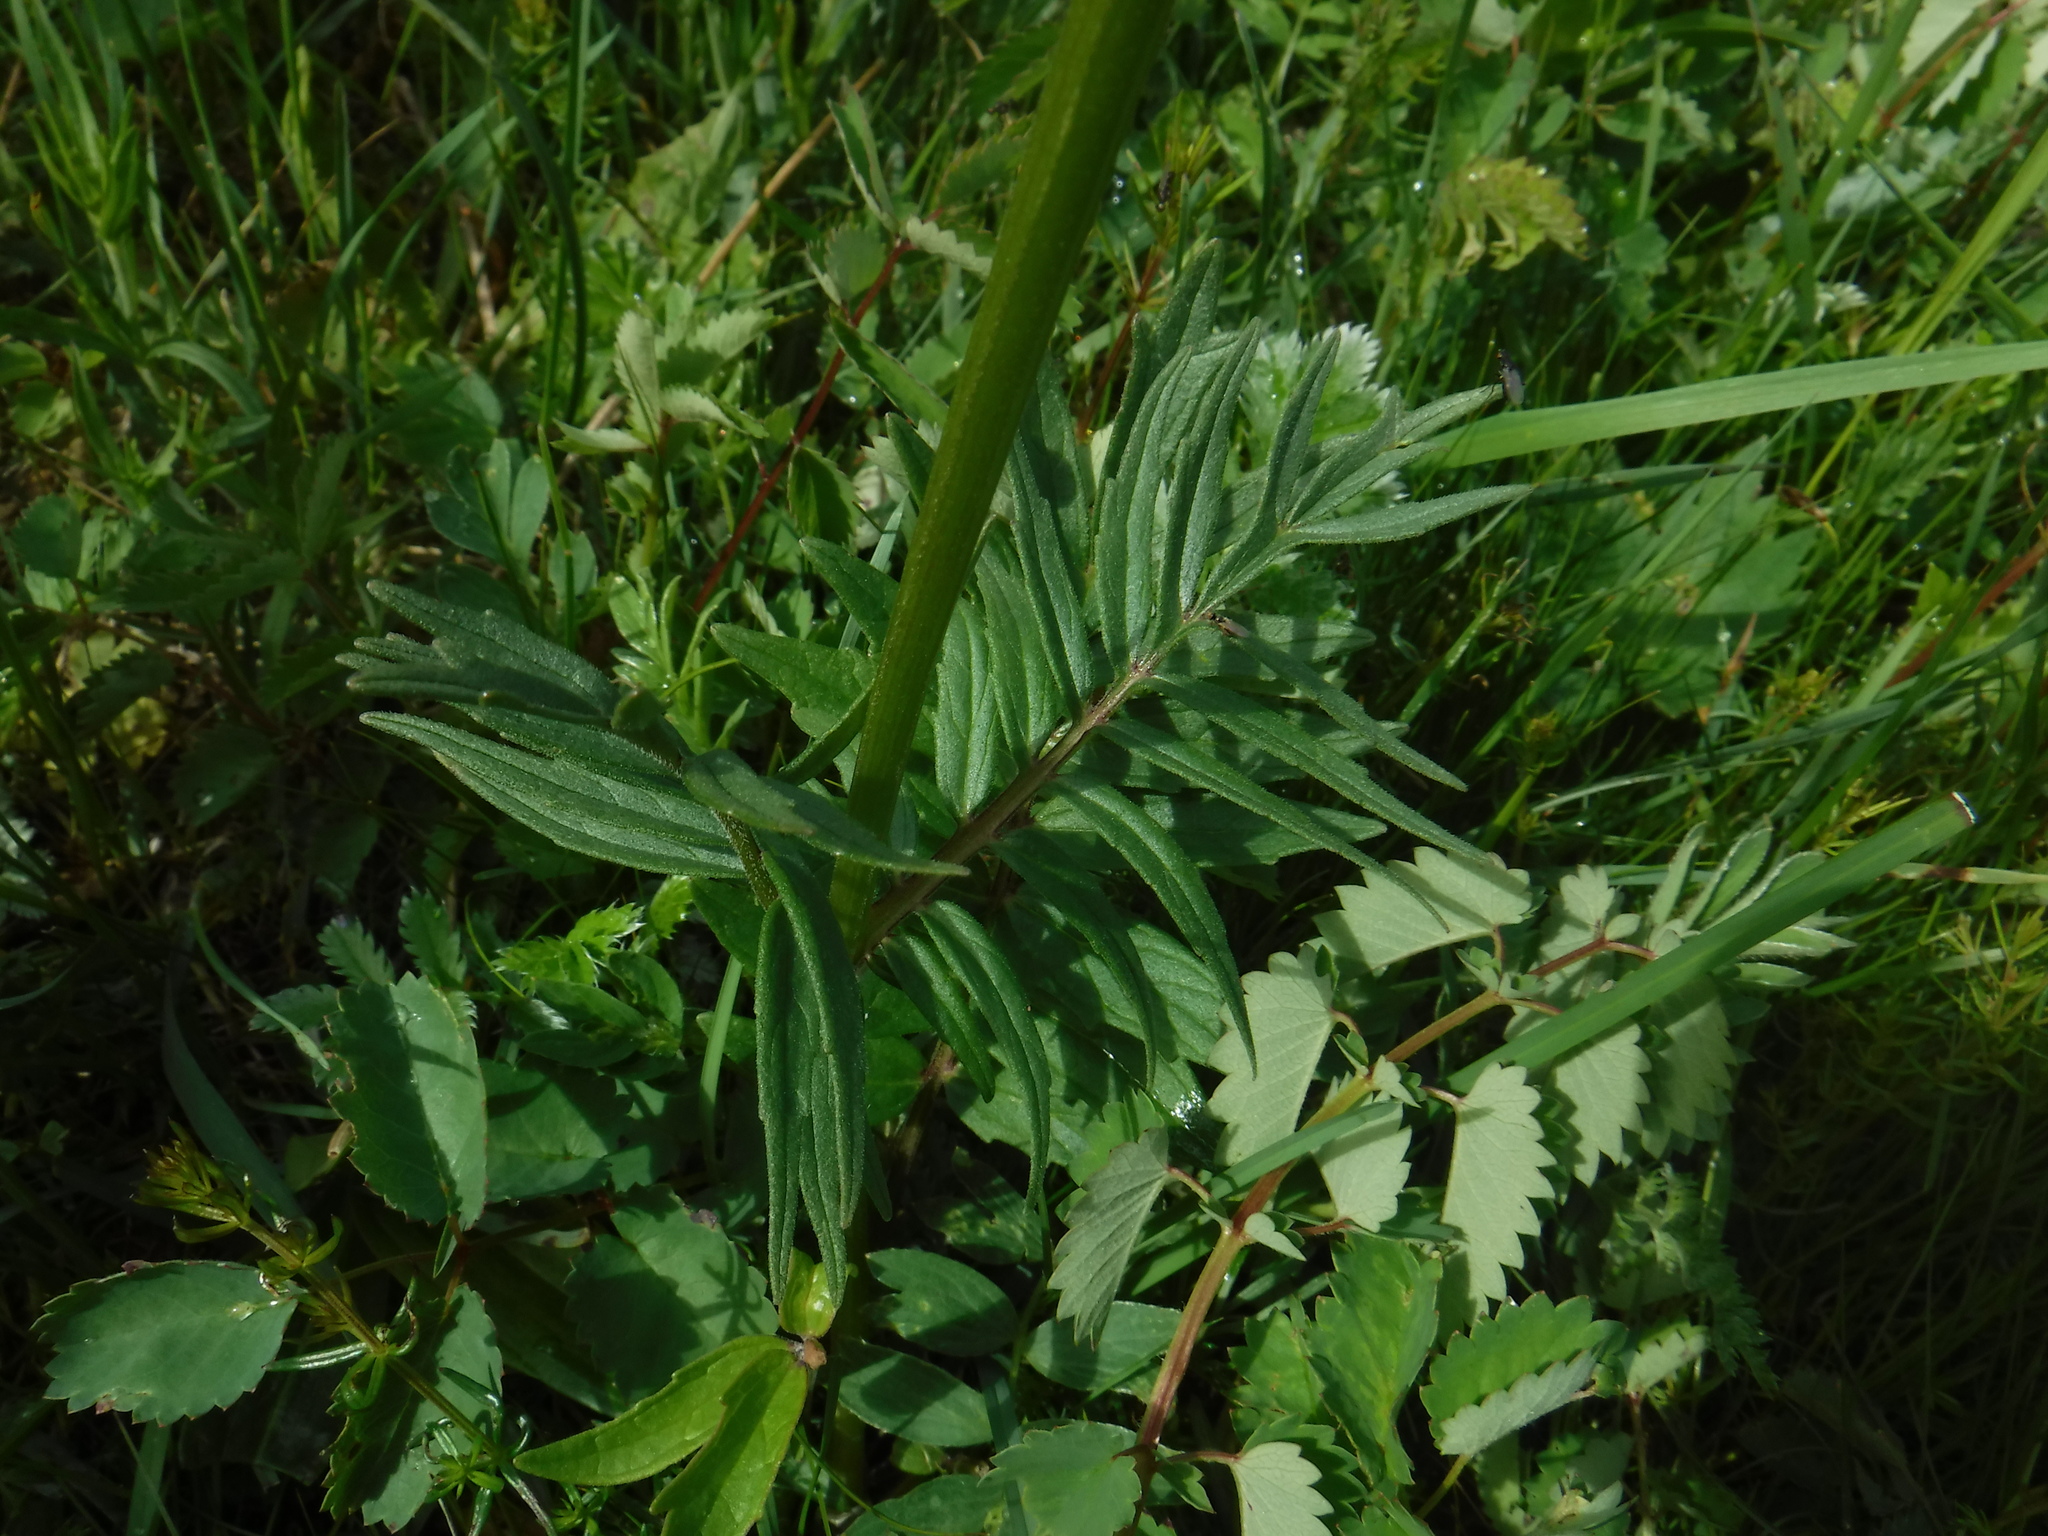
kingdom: Plantae
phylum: Tracheophyta
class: Magnoliopsida
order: Dipsacales
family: Caprifoliaceae
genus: Valeriana
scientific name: Valeriana officinalis
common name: Common valerian
